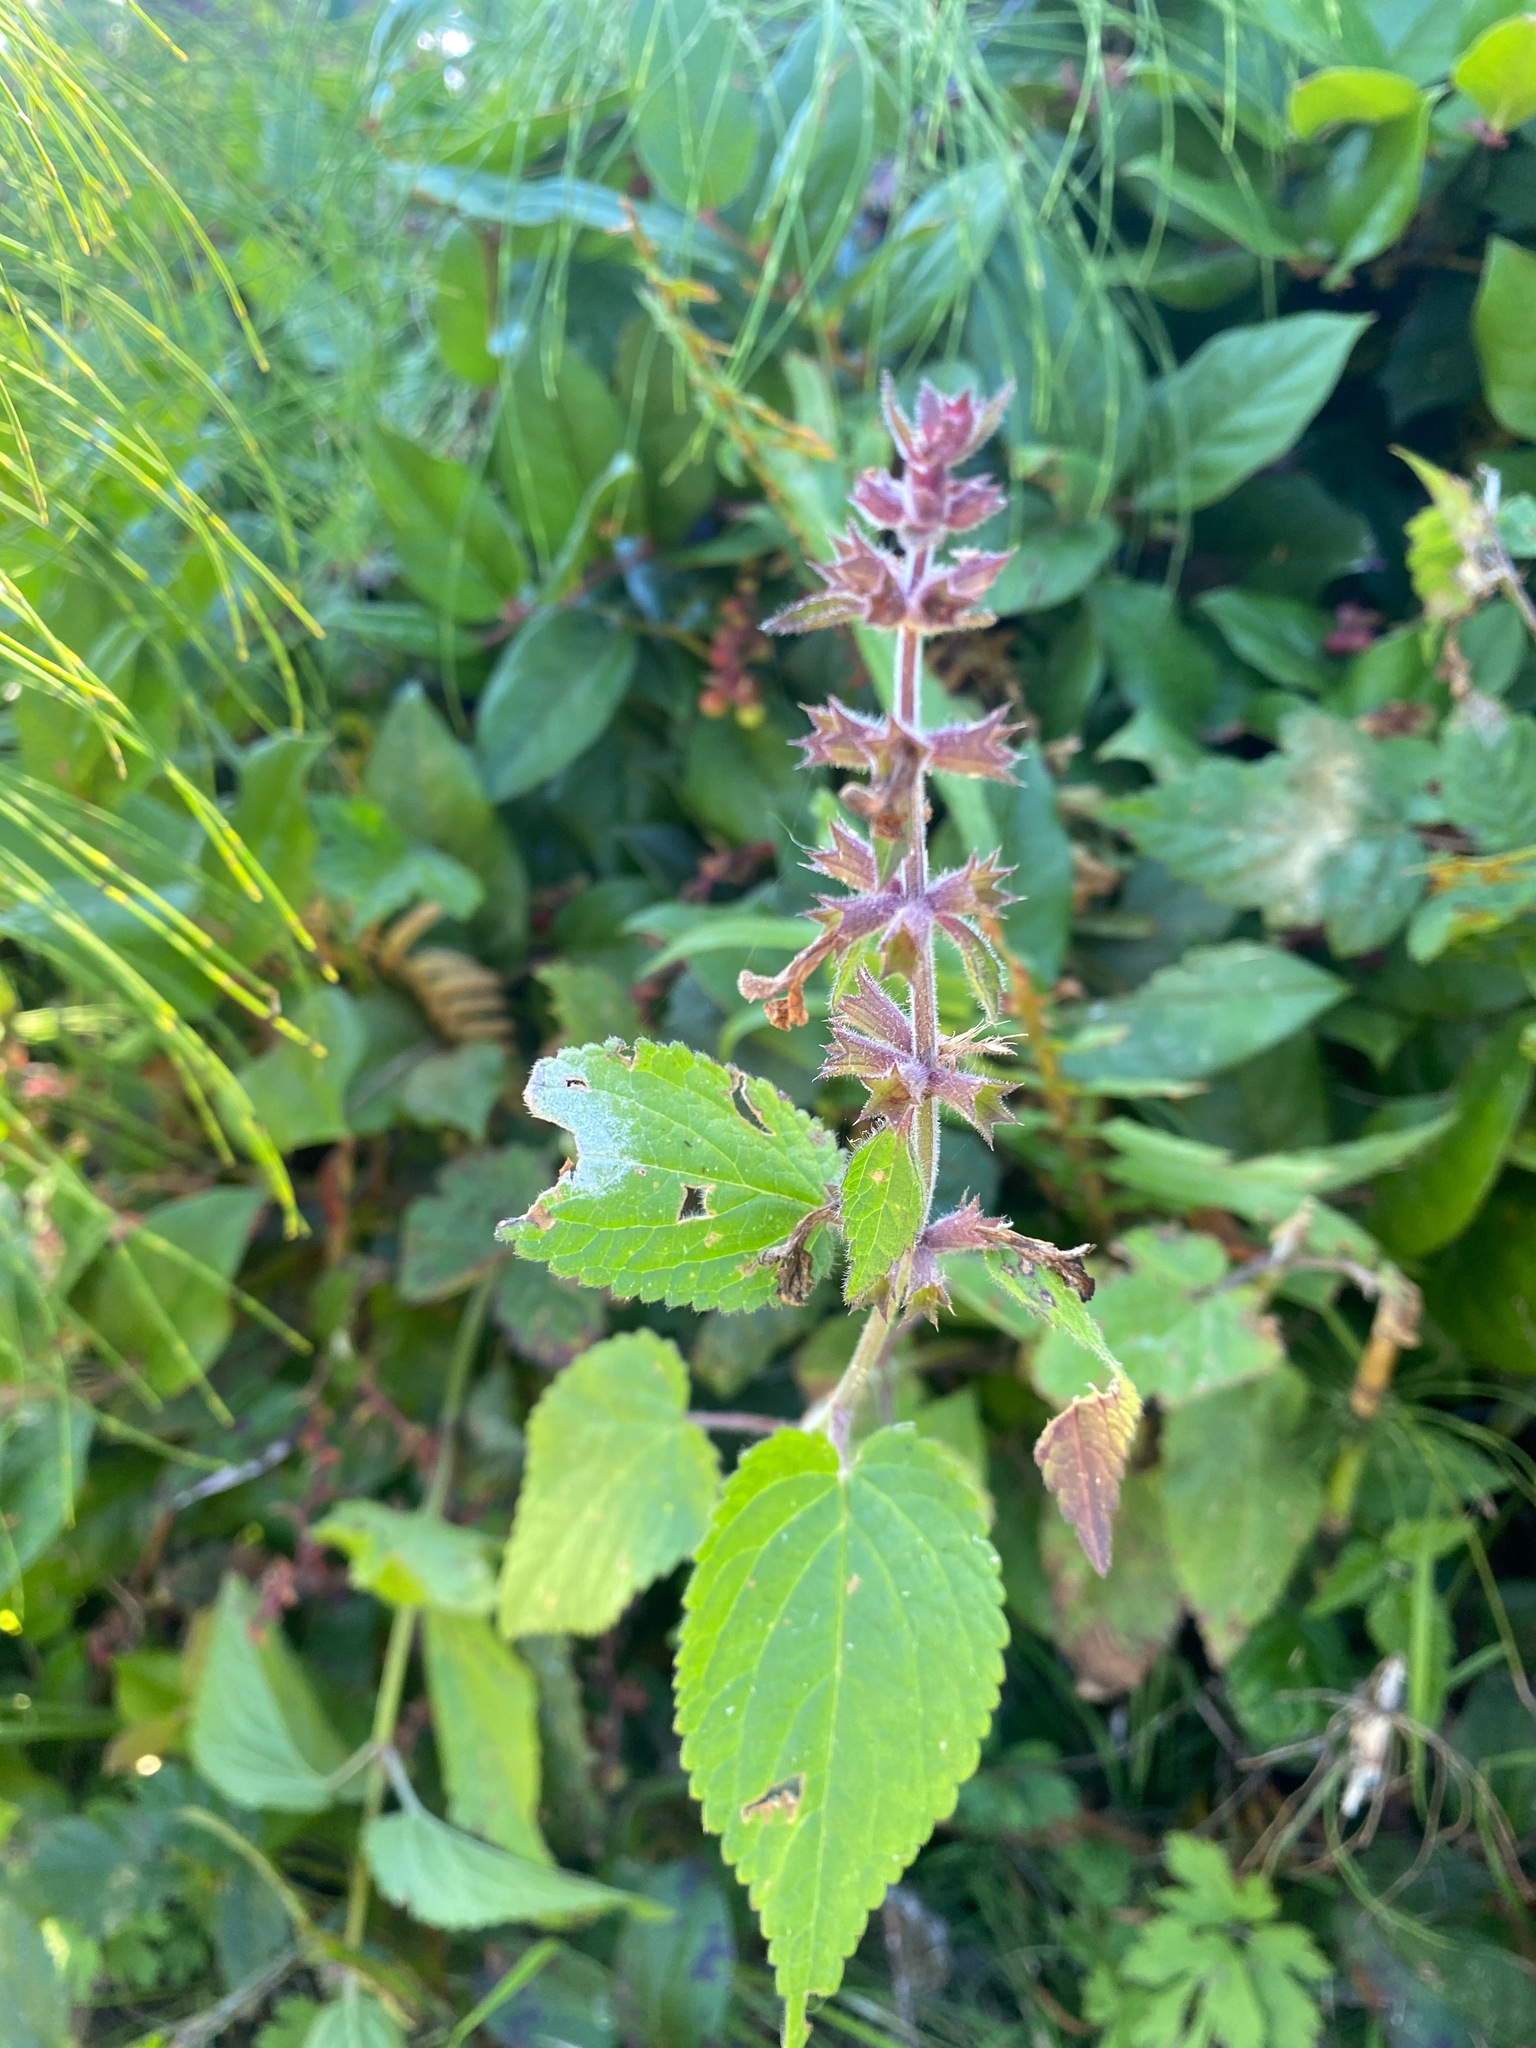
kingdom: Plantae
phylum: Tracheophyta
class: Magnoliopsida
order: Lamiales
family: Lamiaceae
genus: Stachys
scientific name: Stachys chamissonis
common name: Coastal hedge-nettle
